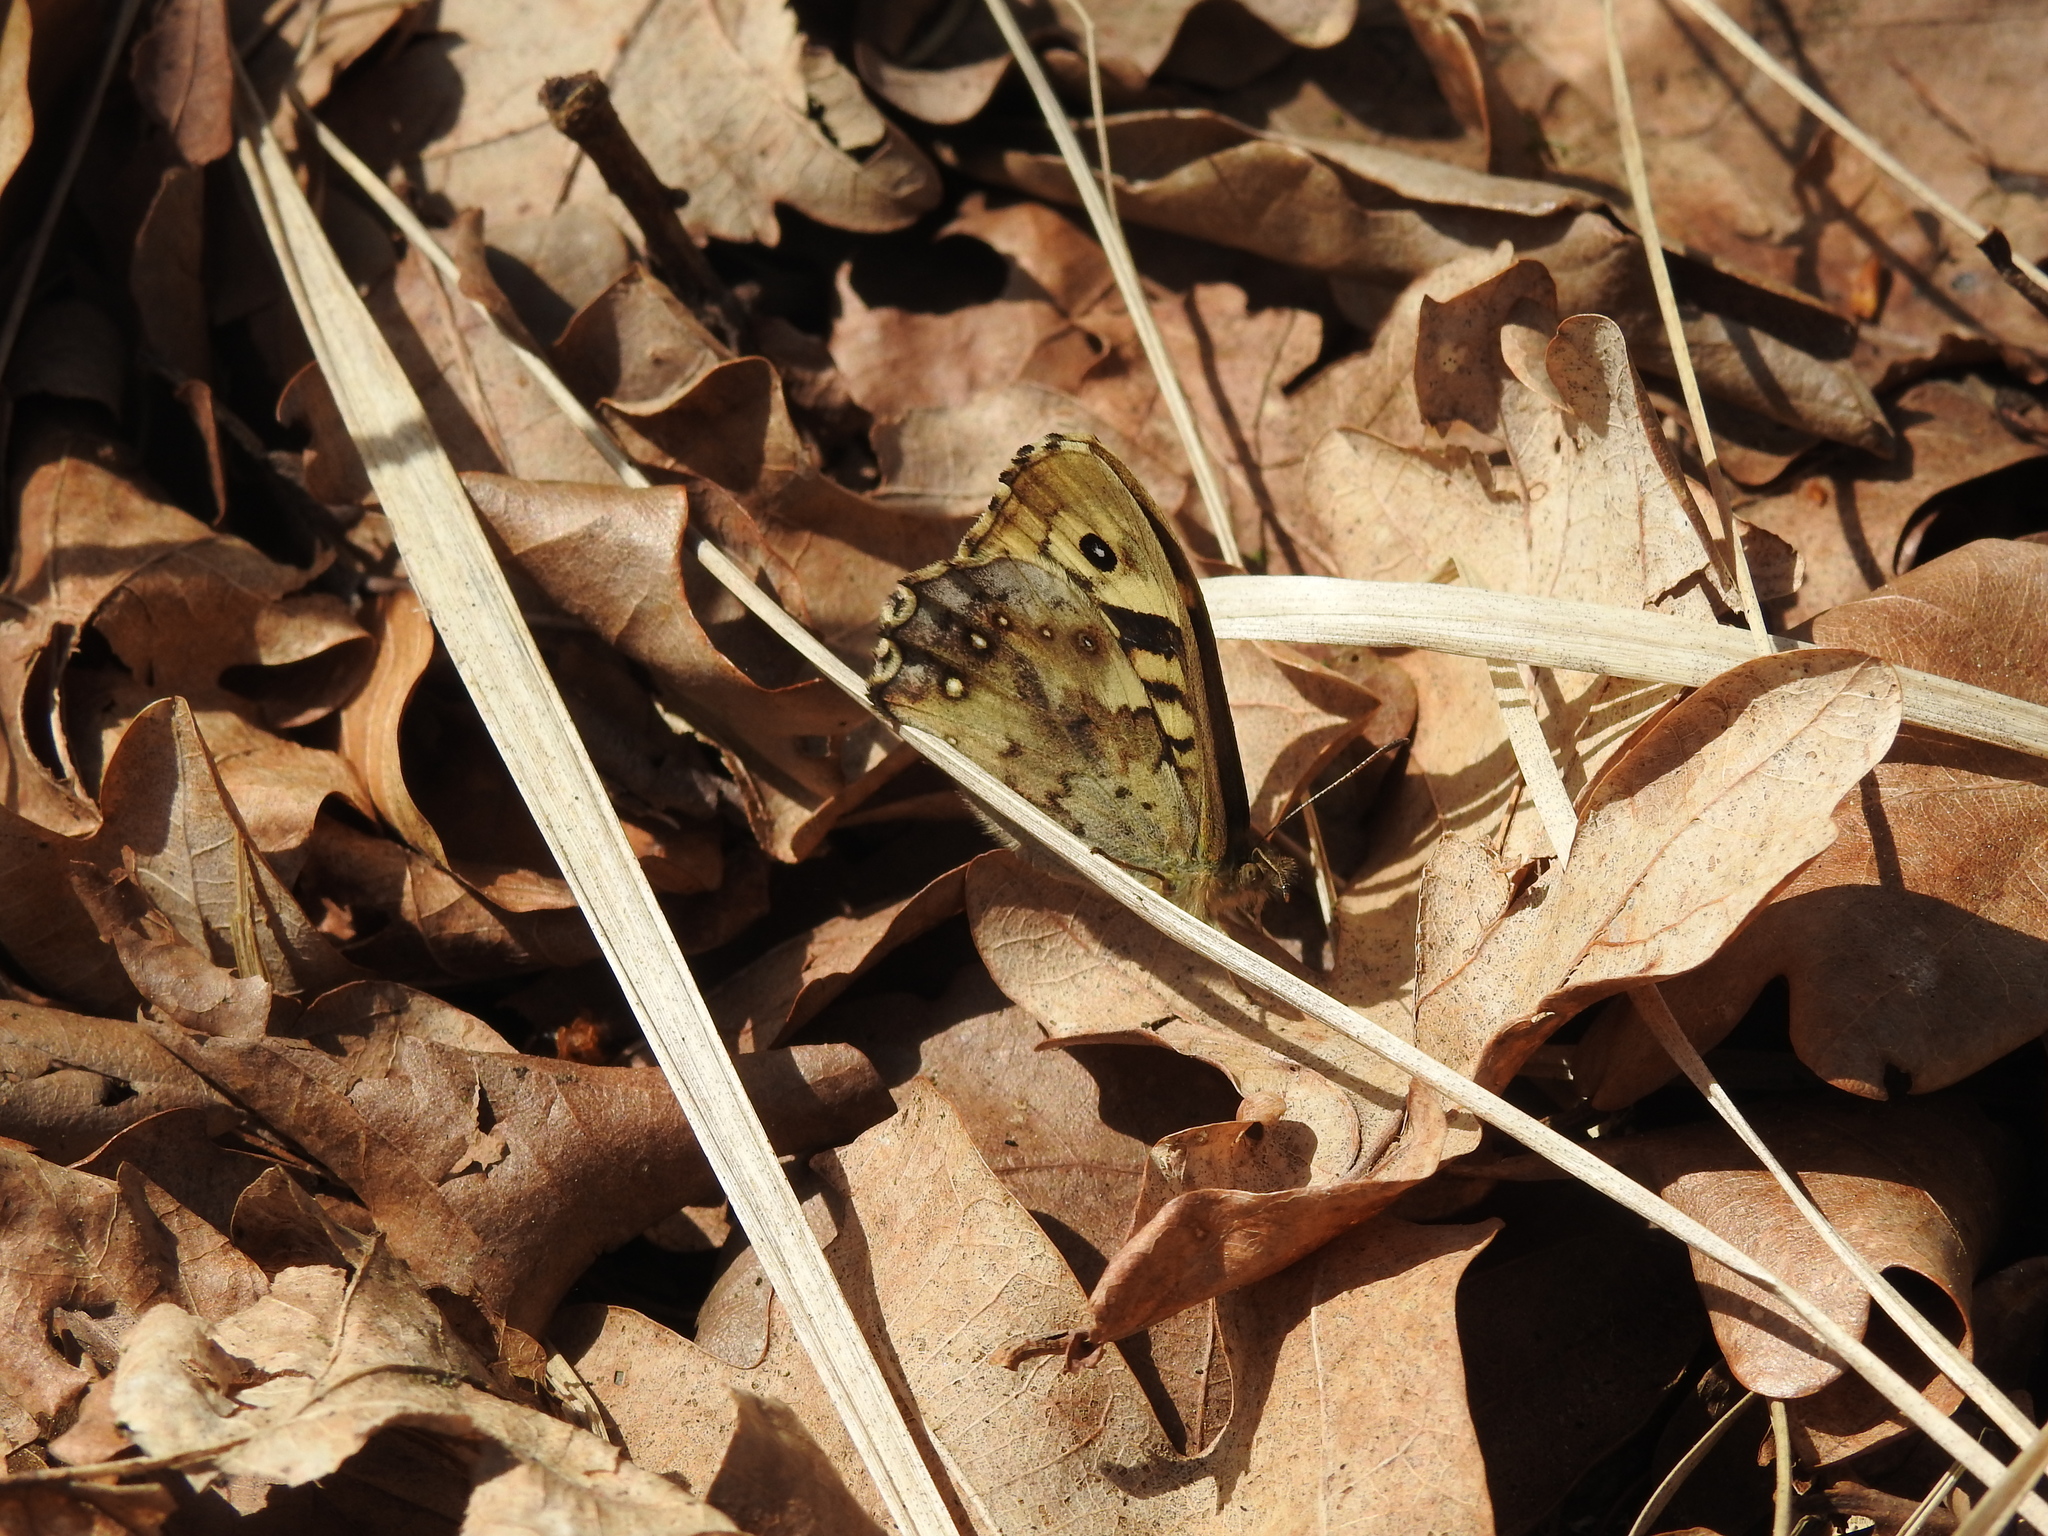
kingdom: Animalia
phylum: Arthropoda
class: Insecta
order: Lepidoptera
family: Nymphalidae
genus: Pararge
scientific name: Pararge aegeria
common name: Speckled wood
